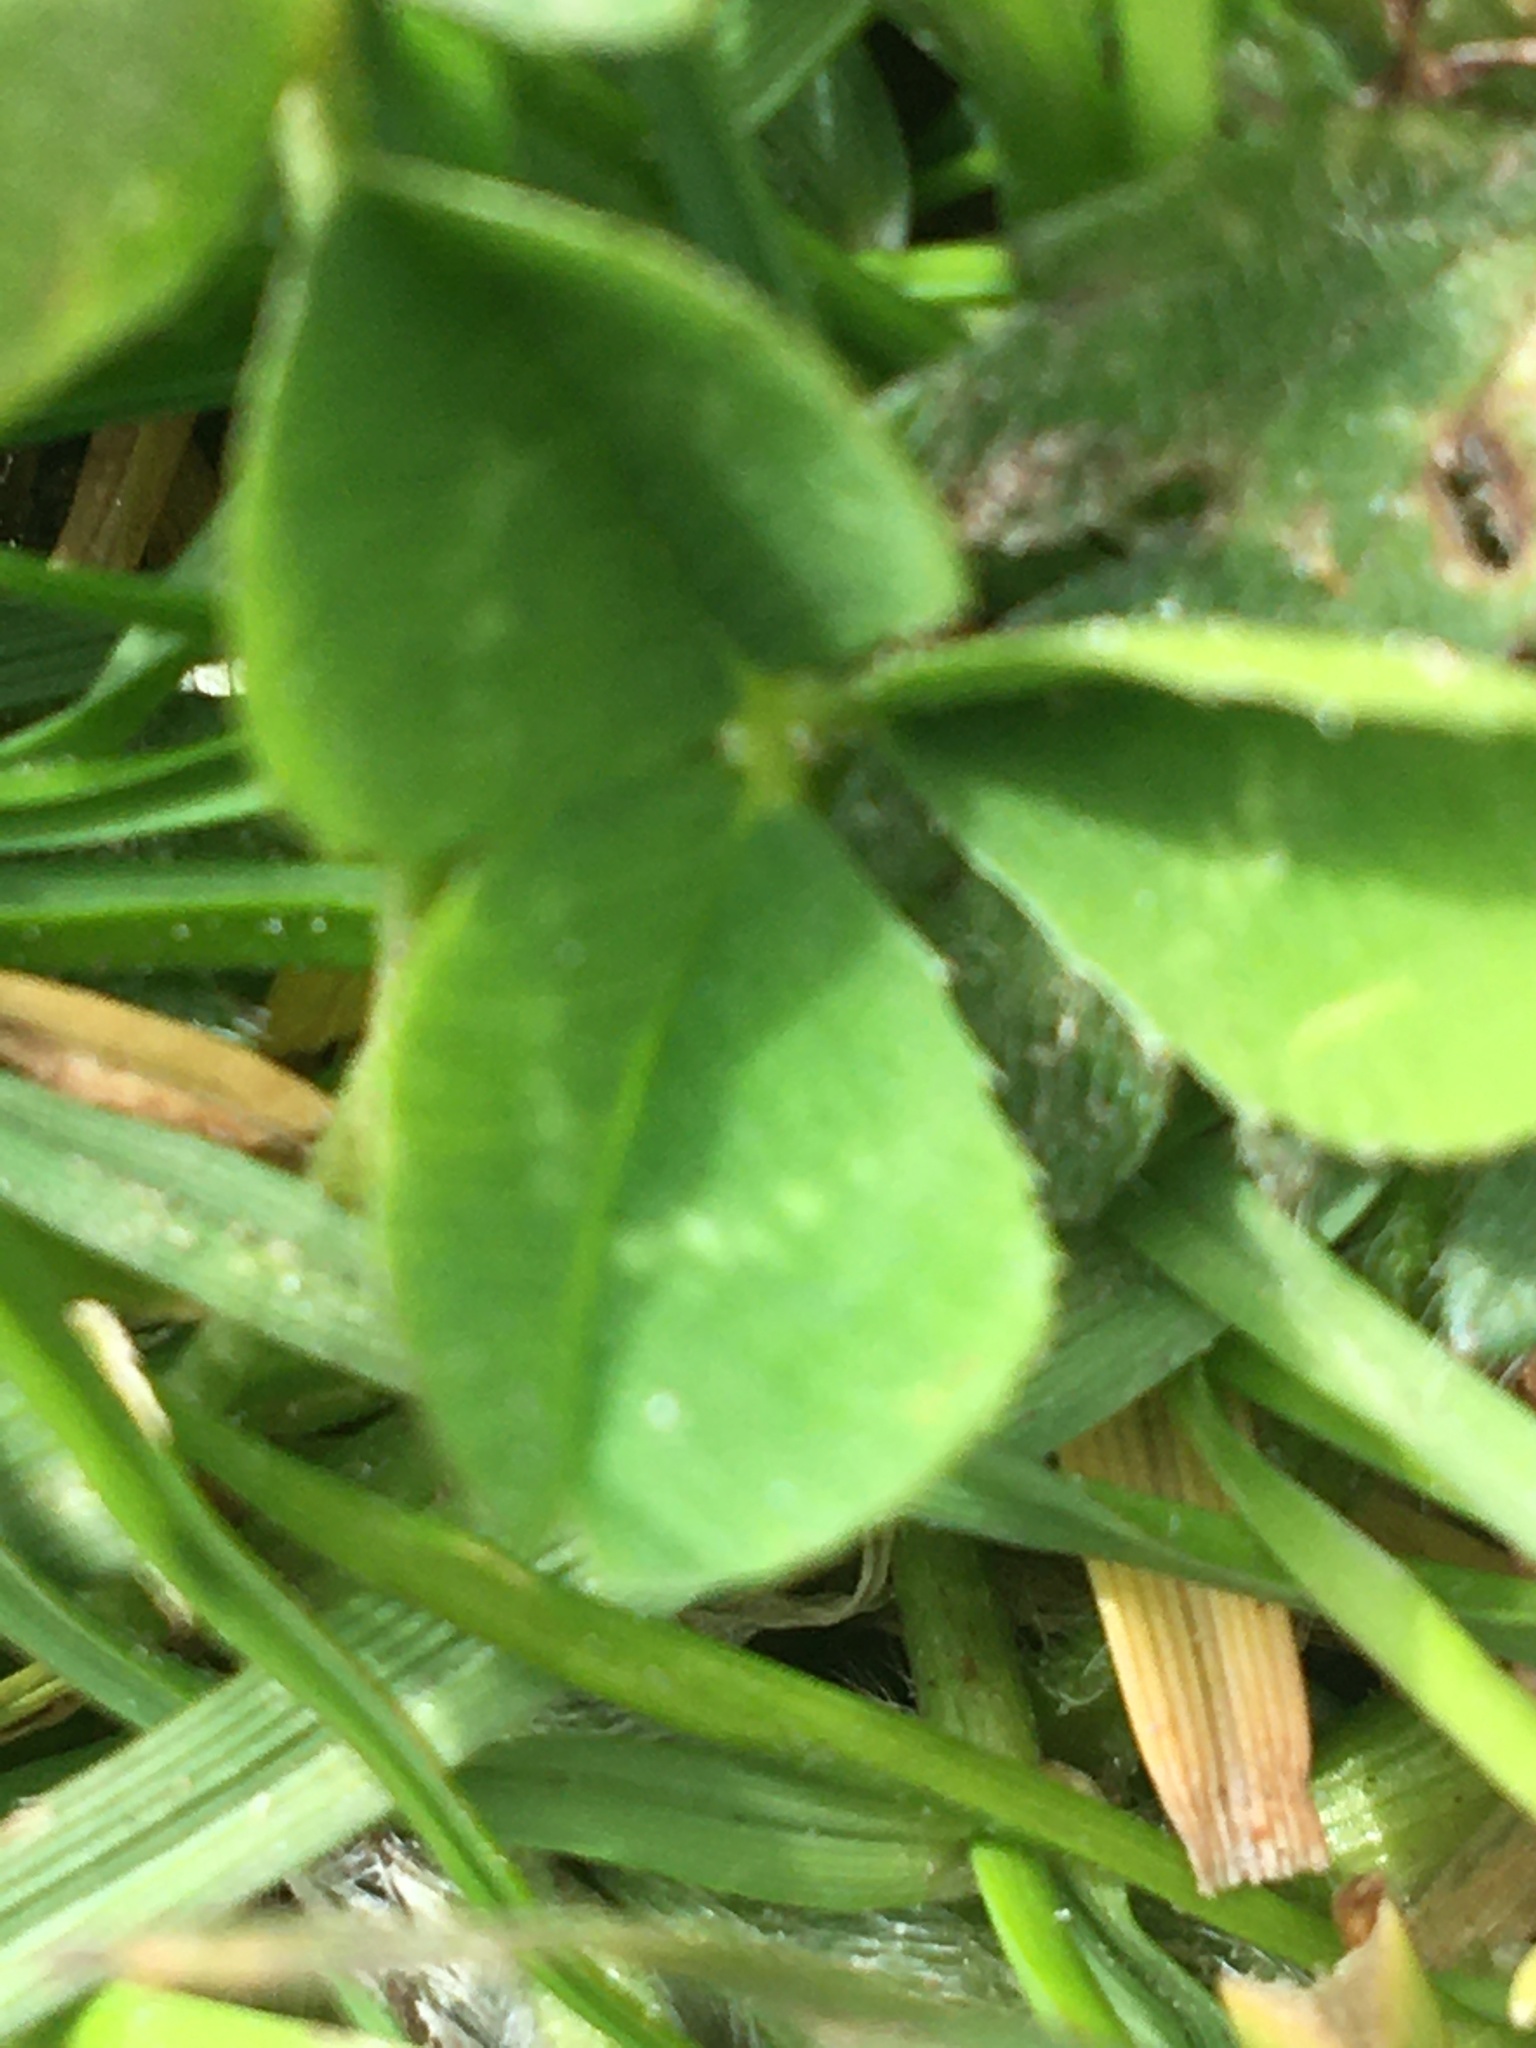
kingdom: Plantae
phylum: Tracheophyta
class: Magnoliopsida
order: Fabales
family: Fabaceae
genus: Trifolium
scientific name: Trifolium repens
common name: White clover
